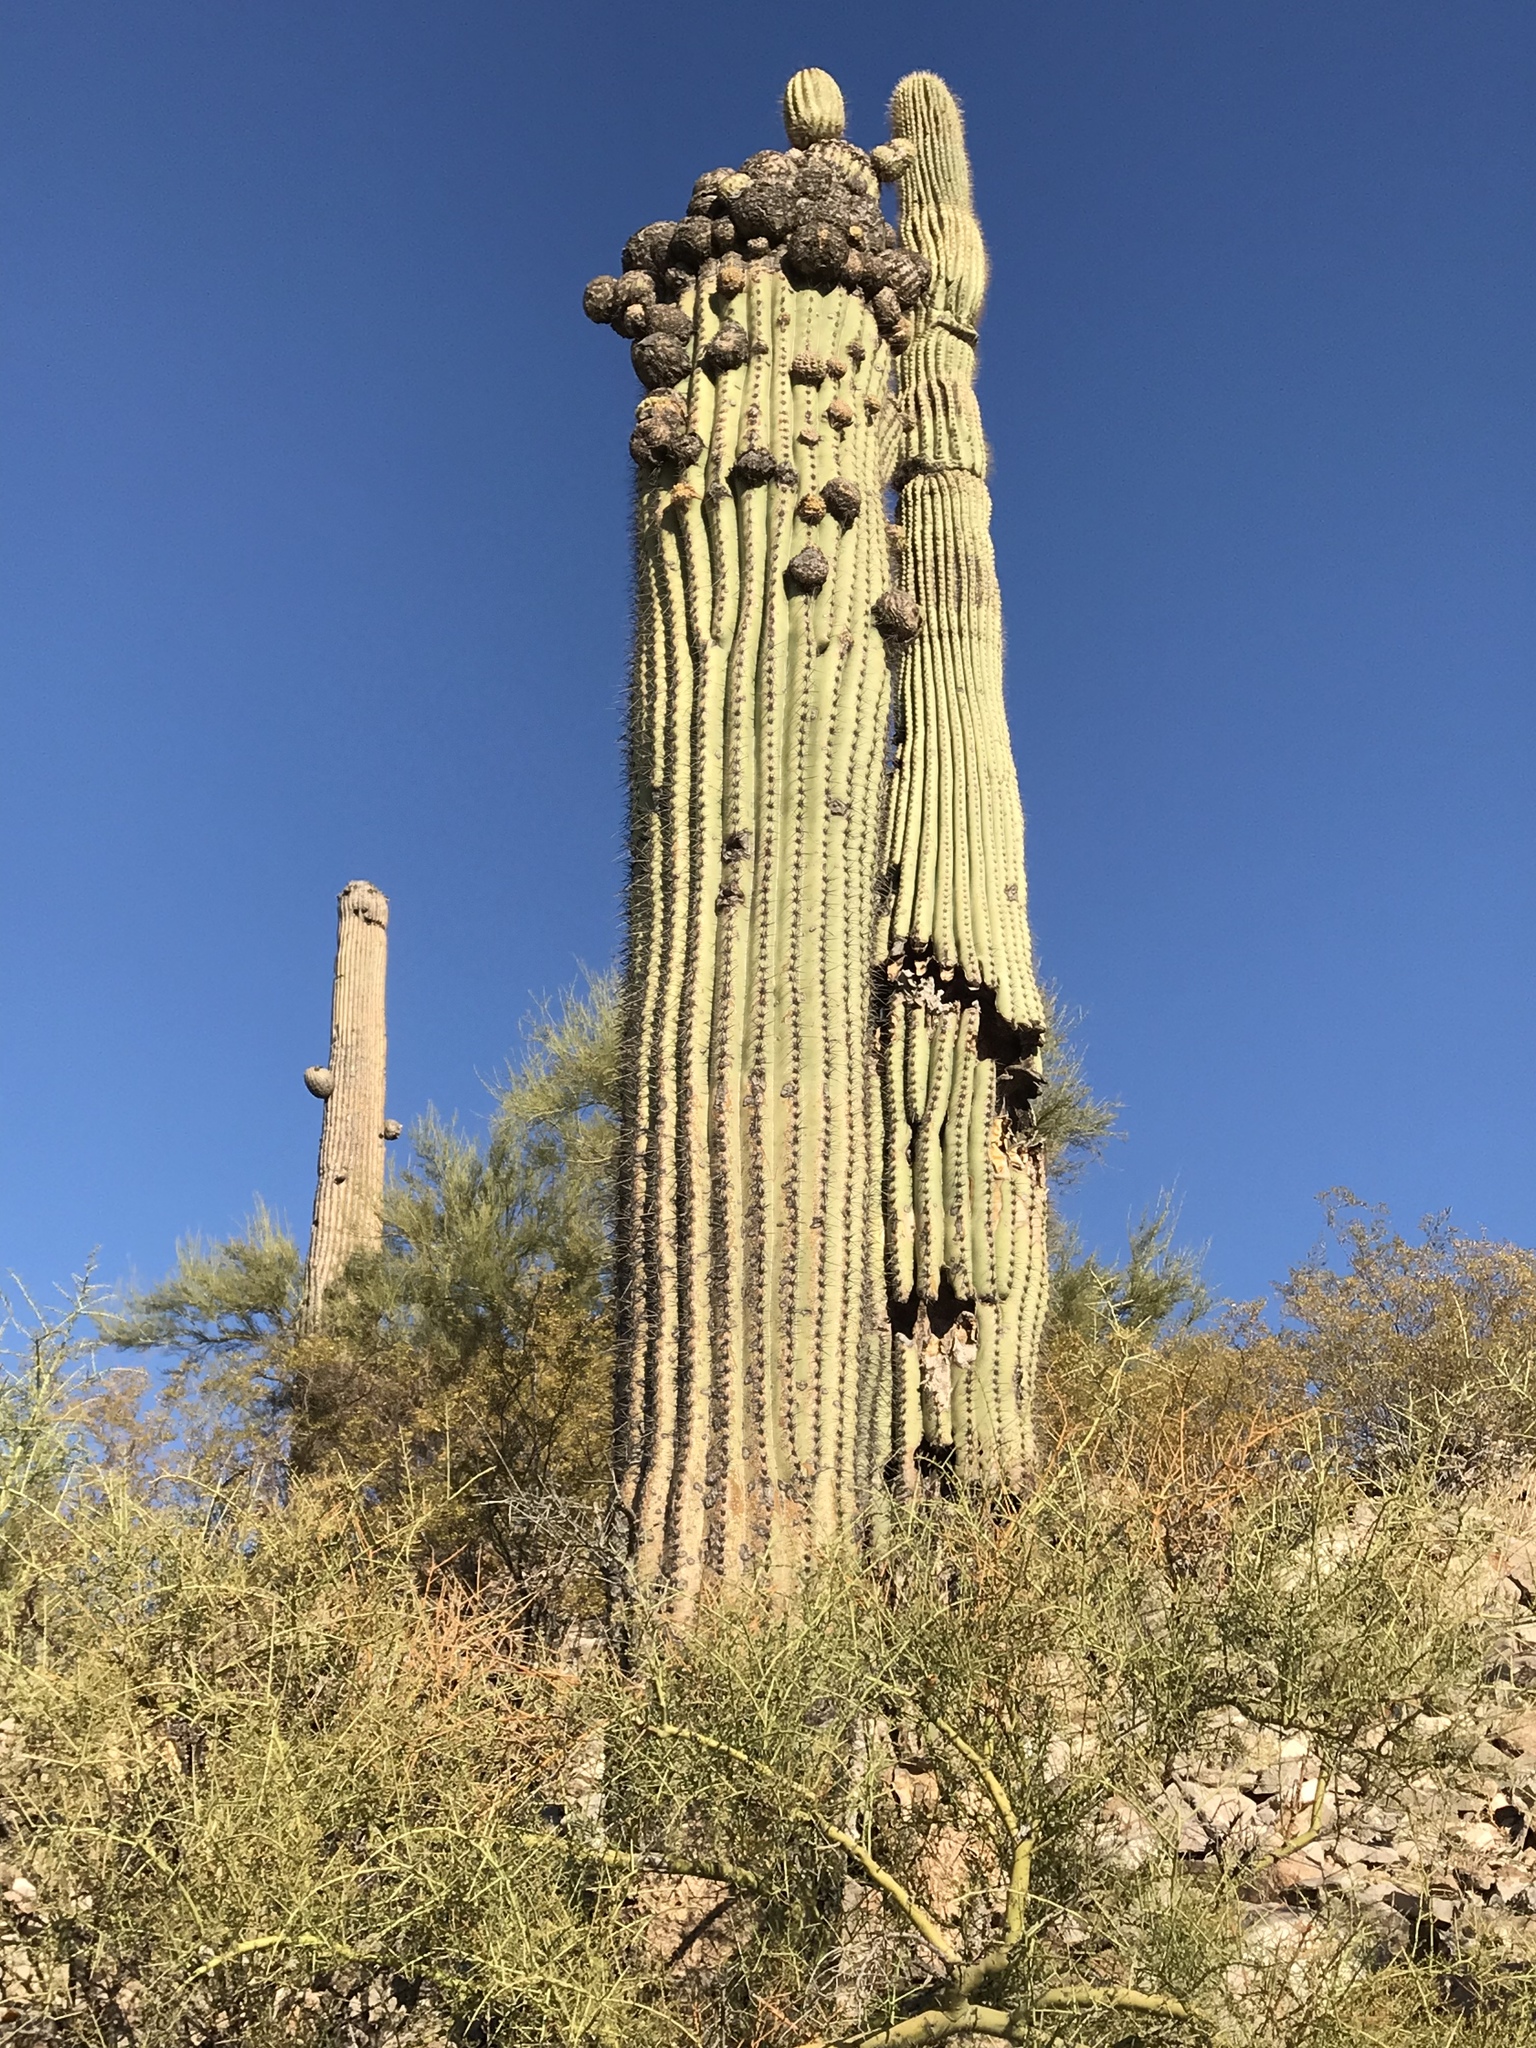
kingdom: Plantae
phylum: Tracheophyta
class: Magnoliopsida
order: Caryophyllales
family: Cactaceae
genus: Carnegiea
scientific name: Carnegiea gigantea
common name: Saguaro
